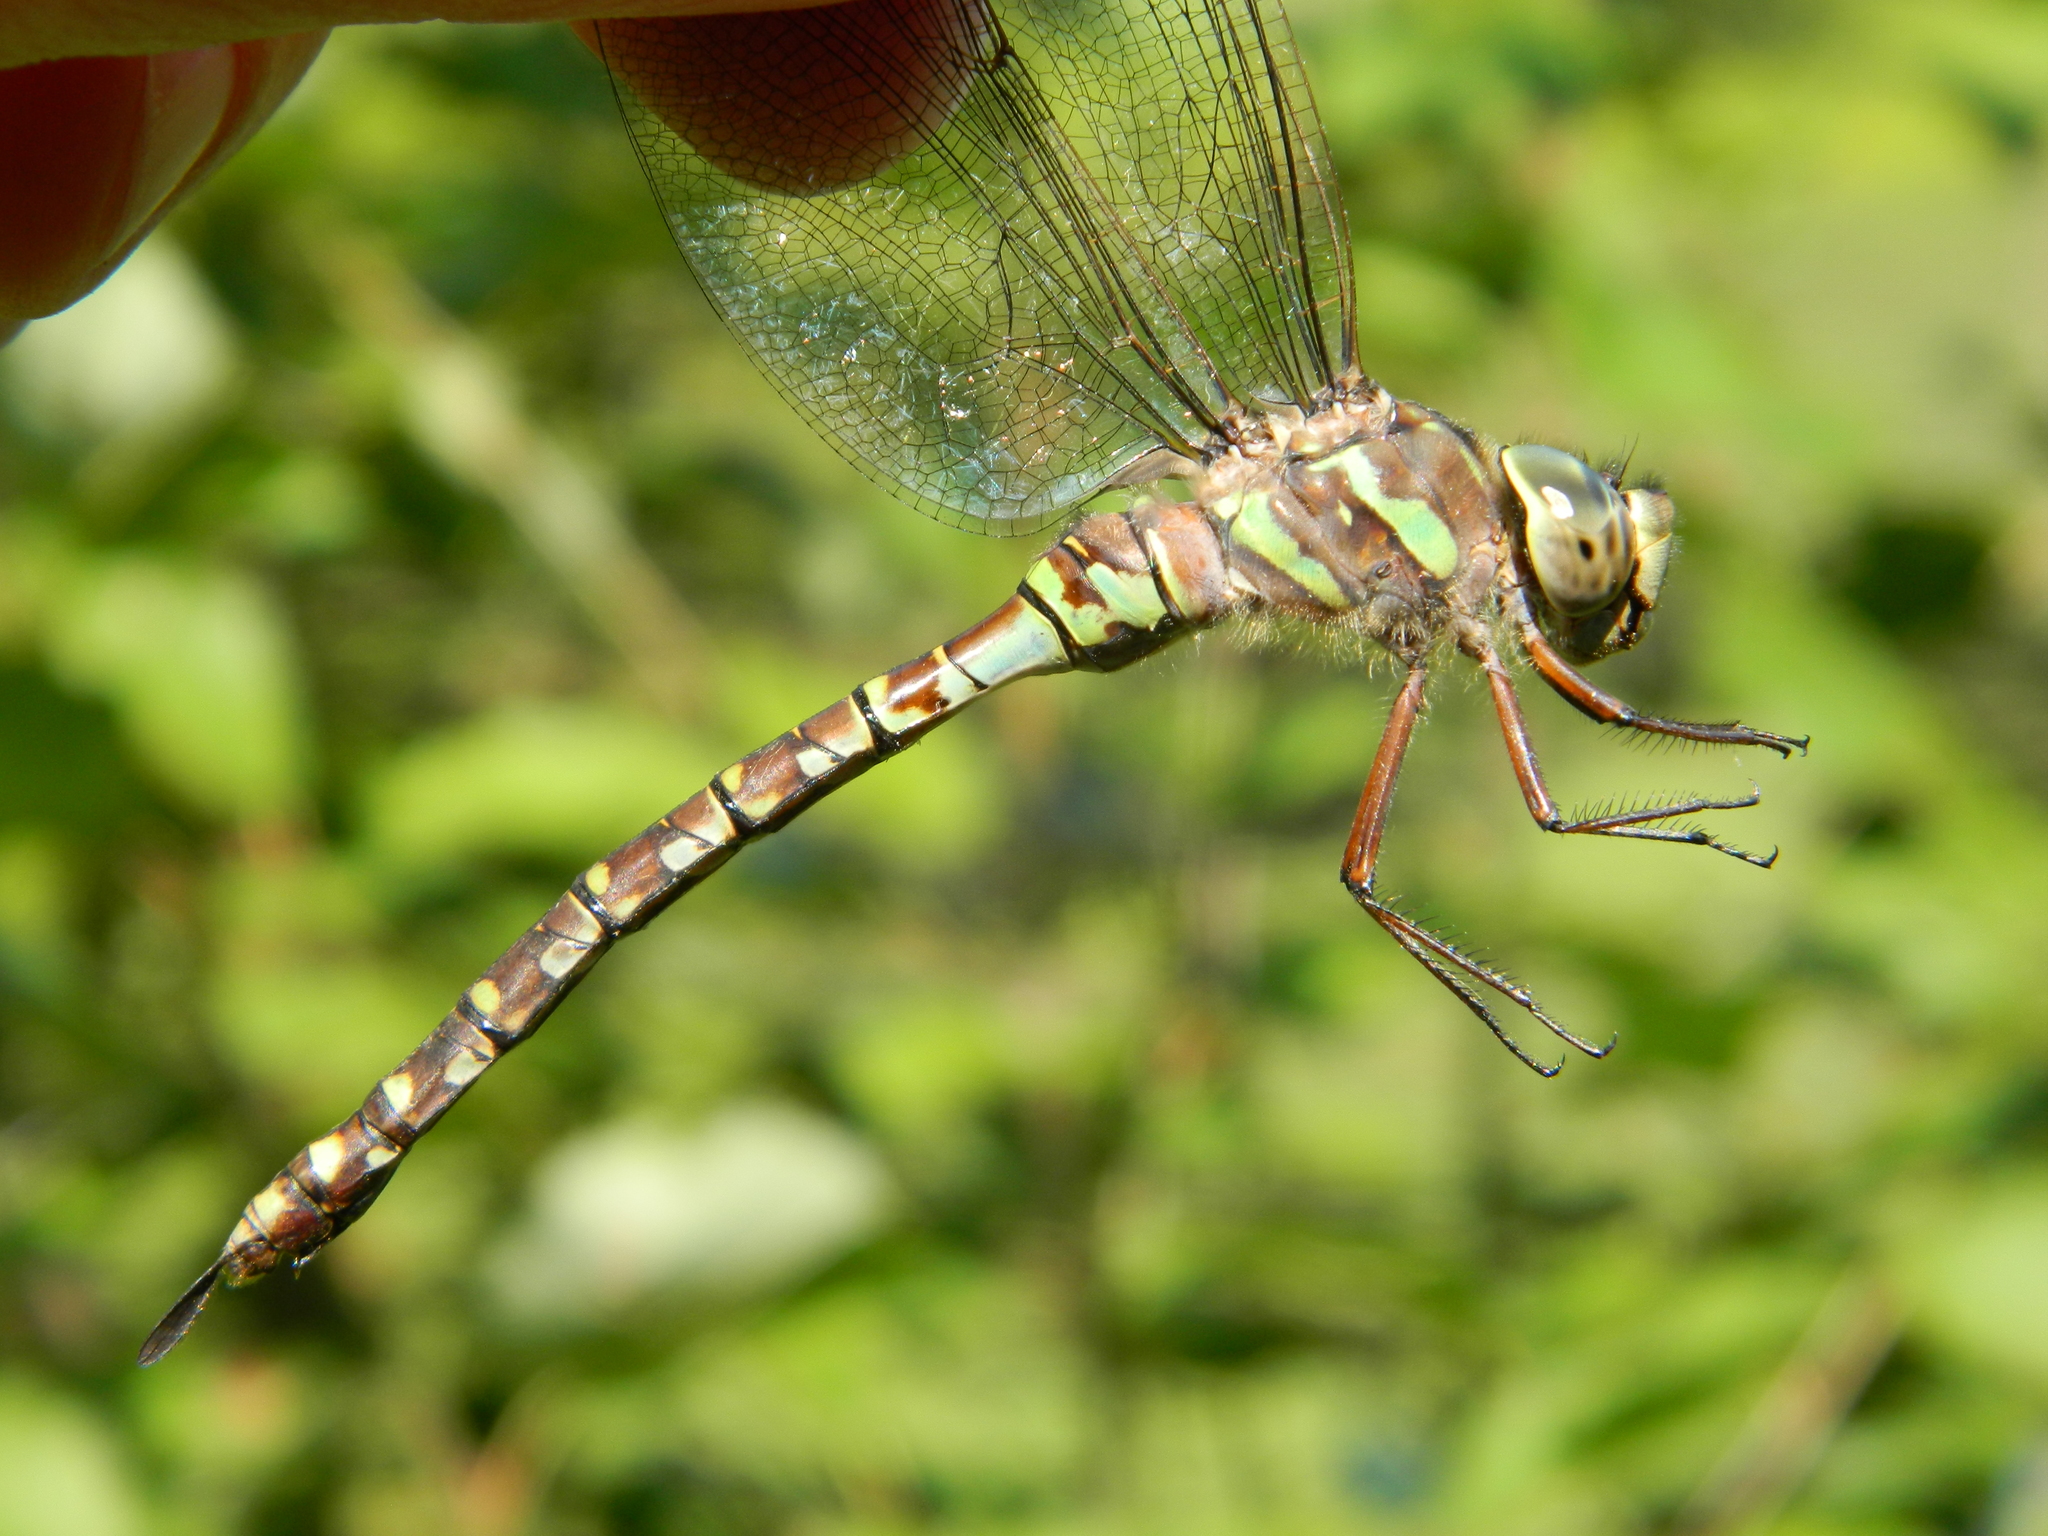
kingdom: Animalia
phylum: Arthropoda
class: Insecta
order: Odonata
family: Aeshnidae
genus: Aeshna
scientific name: Aeshna canadensis
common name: Canada darner
